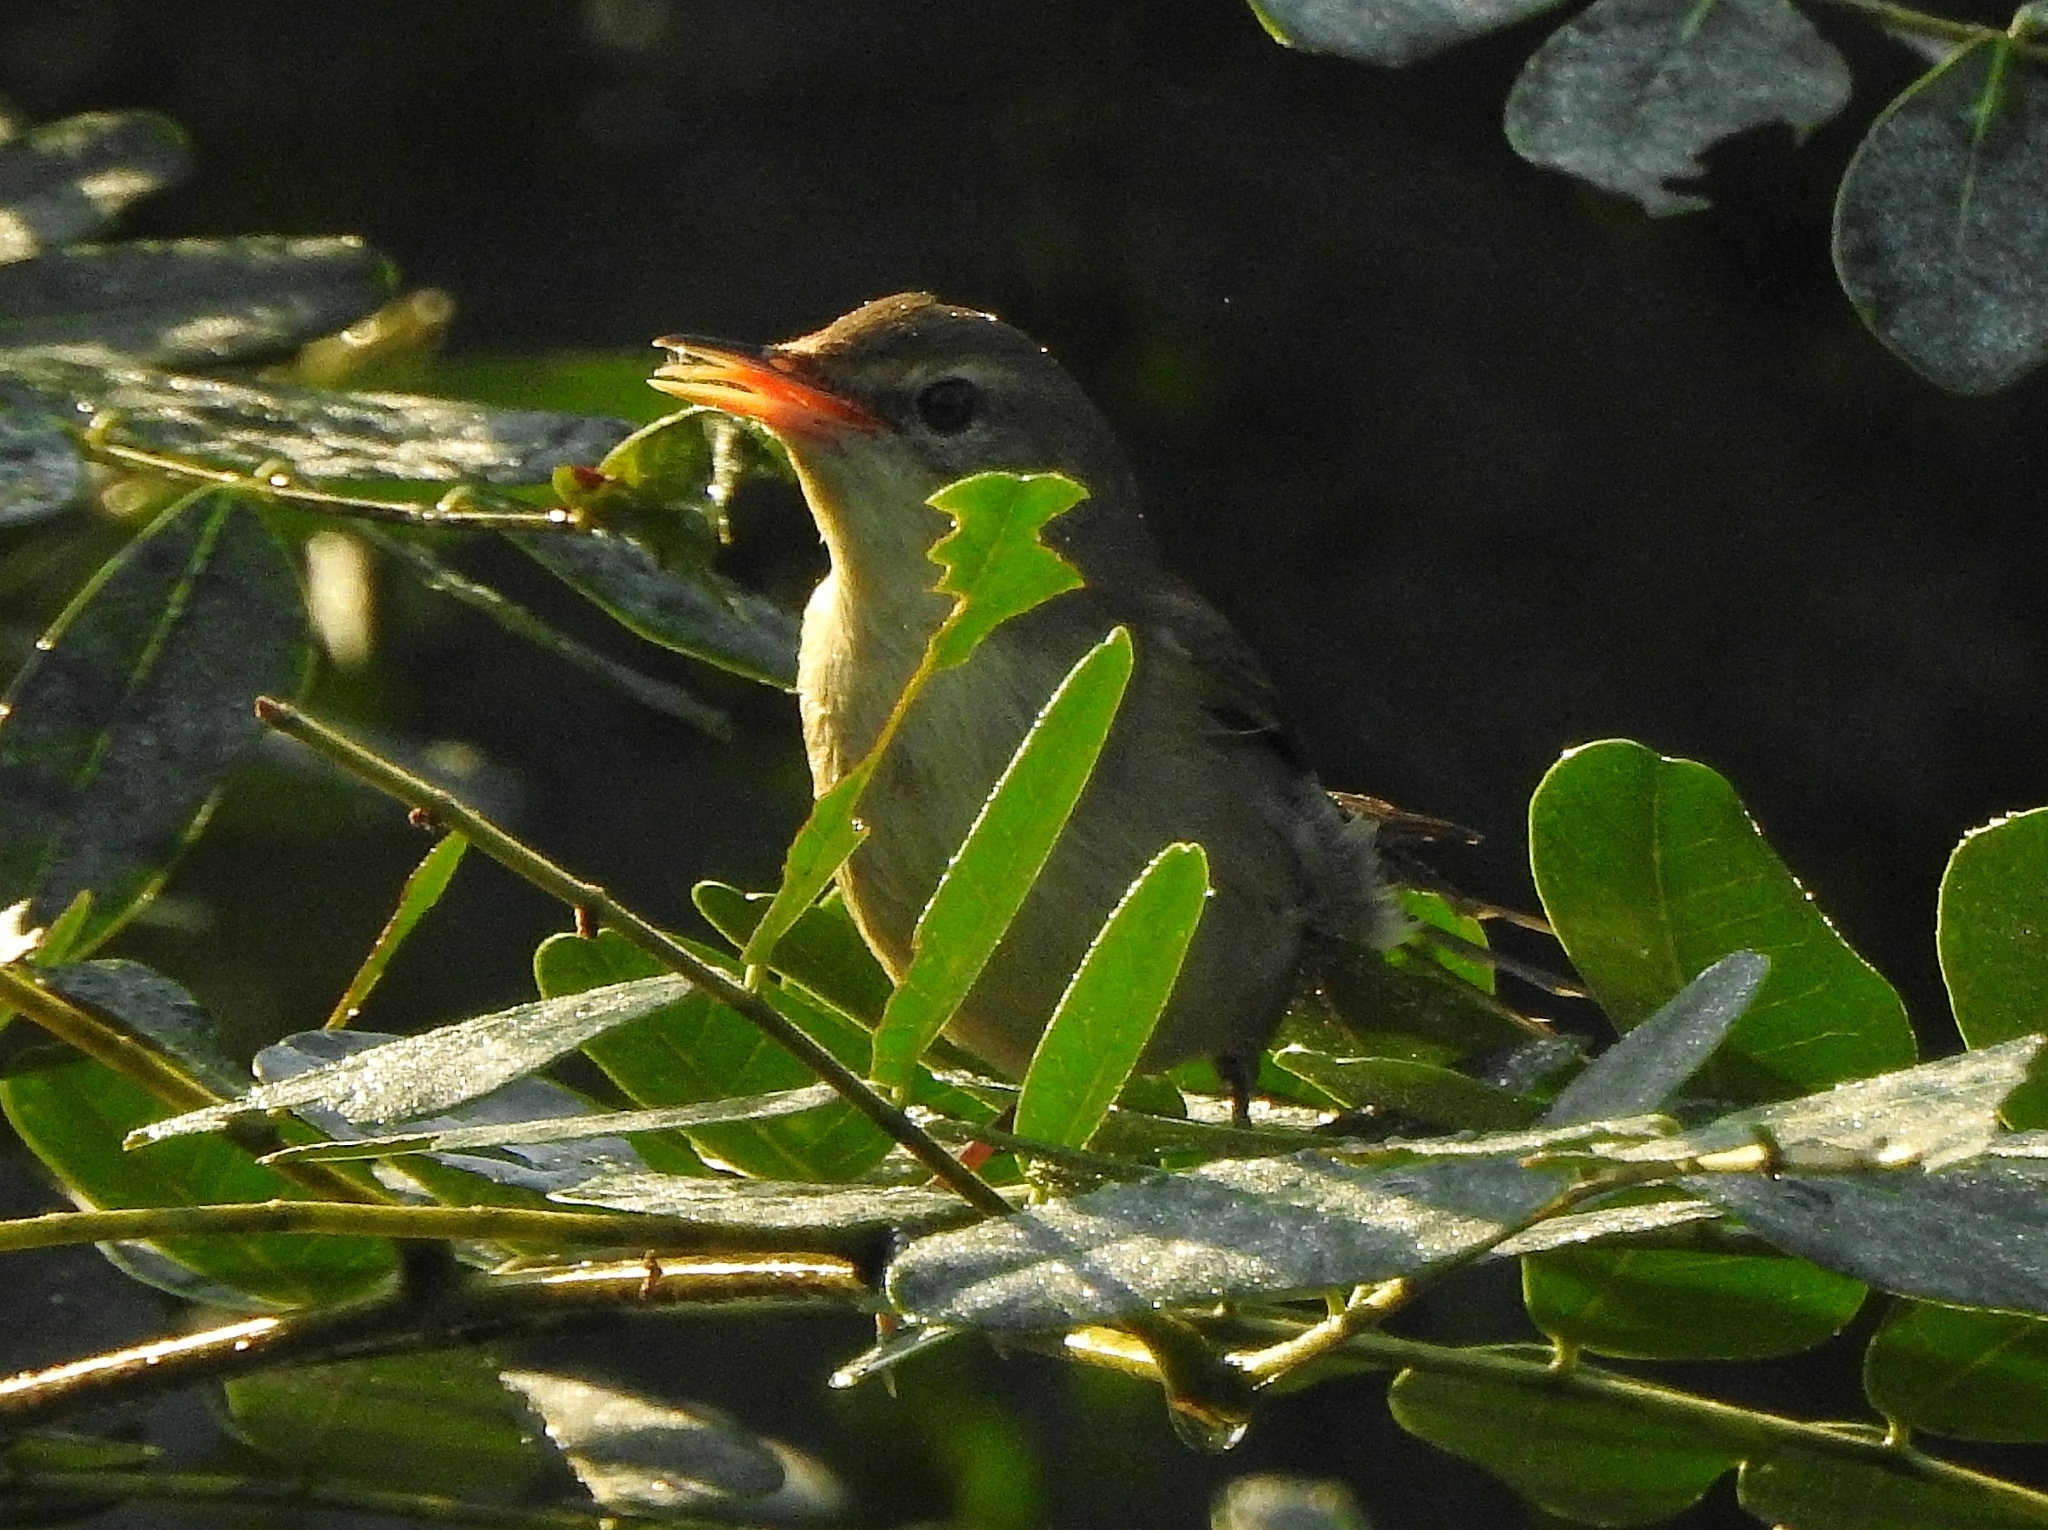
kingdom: Animalia
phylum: Chordata
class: Aves
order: Passeriformes
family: Acrocephalidae
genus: Acrocephalus
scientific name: Acrocephalus dumetorum
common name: Blyth's reed warbler
